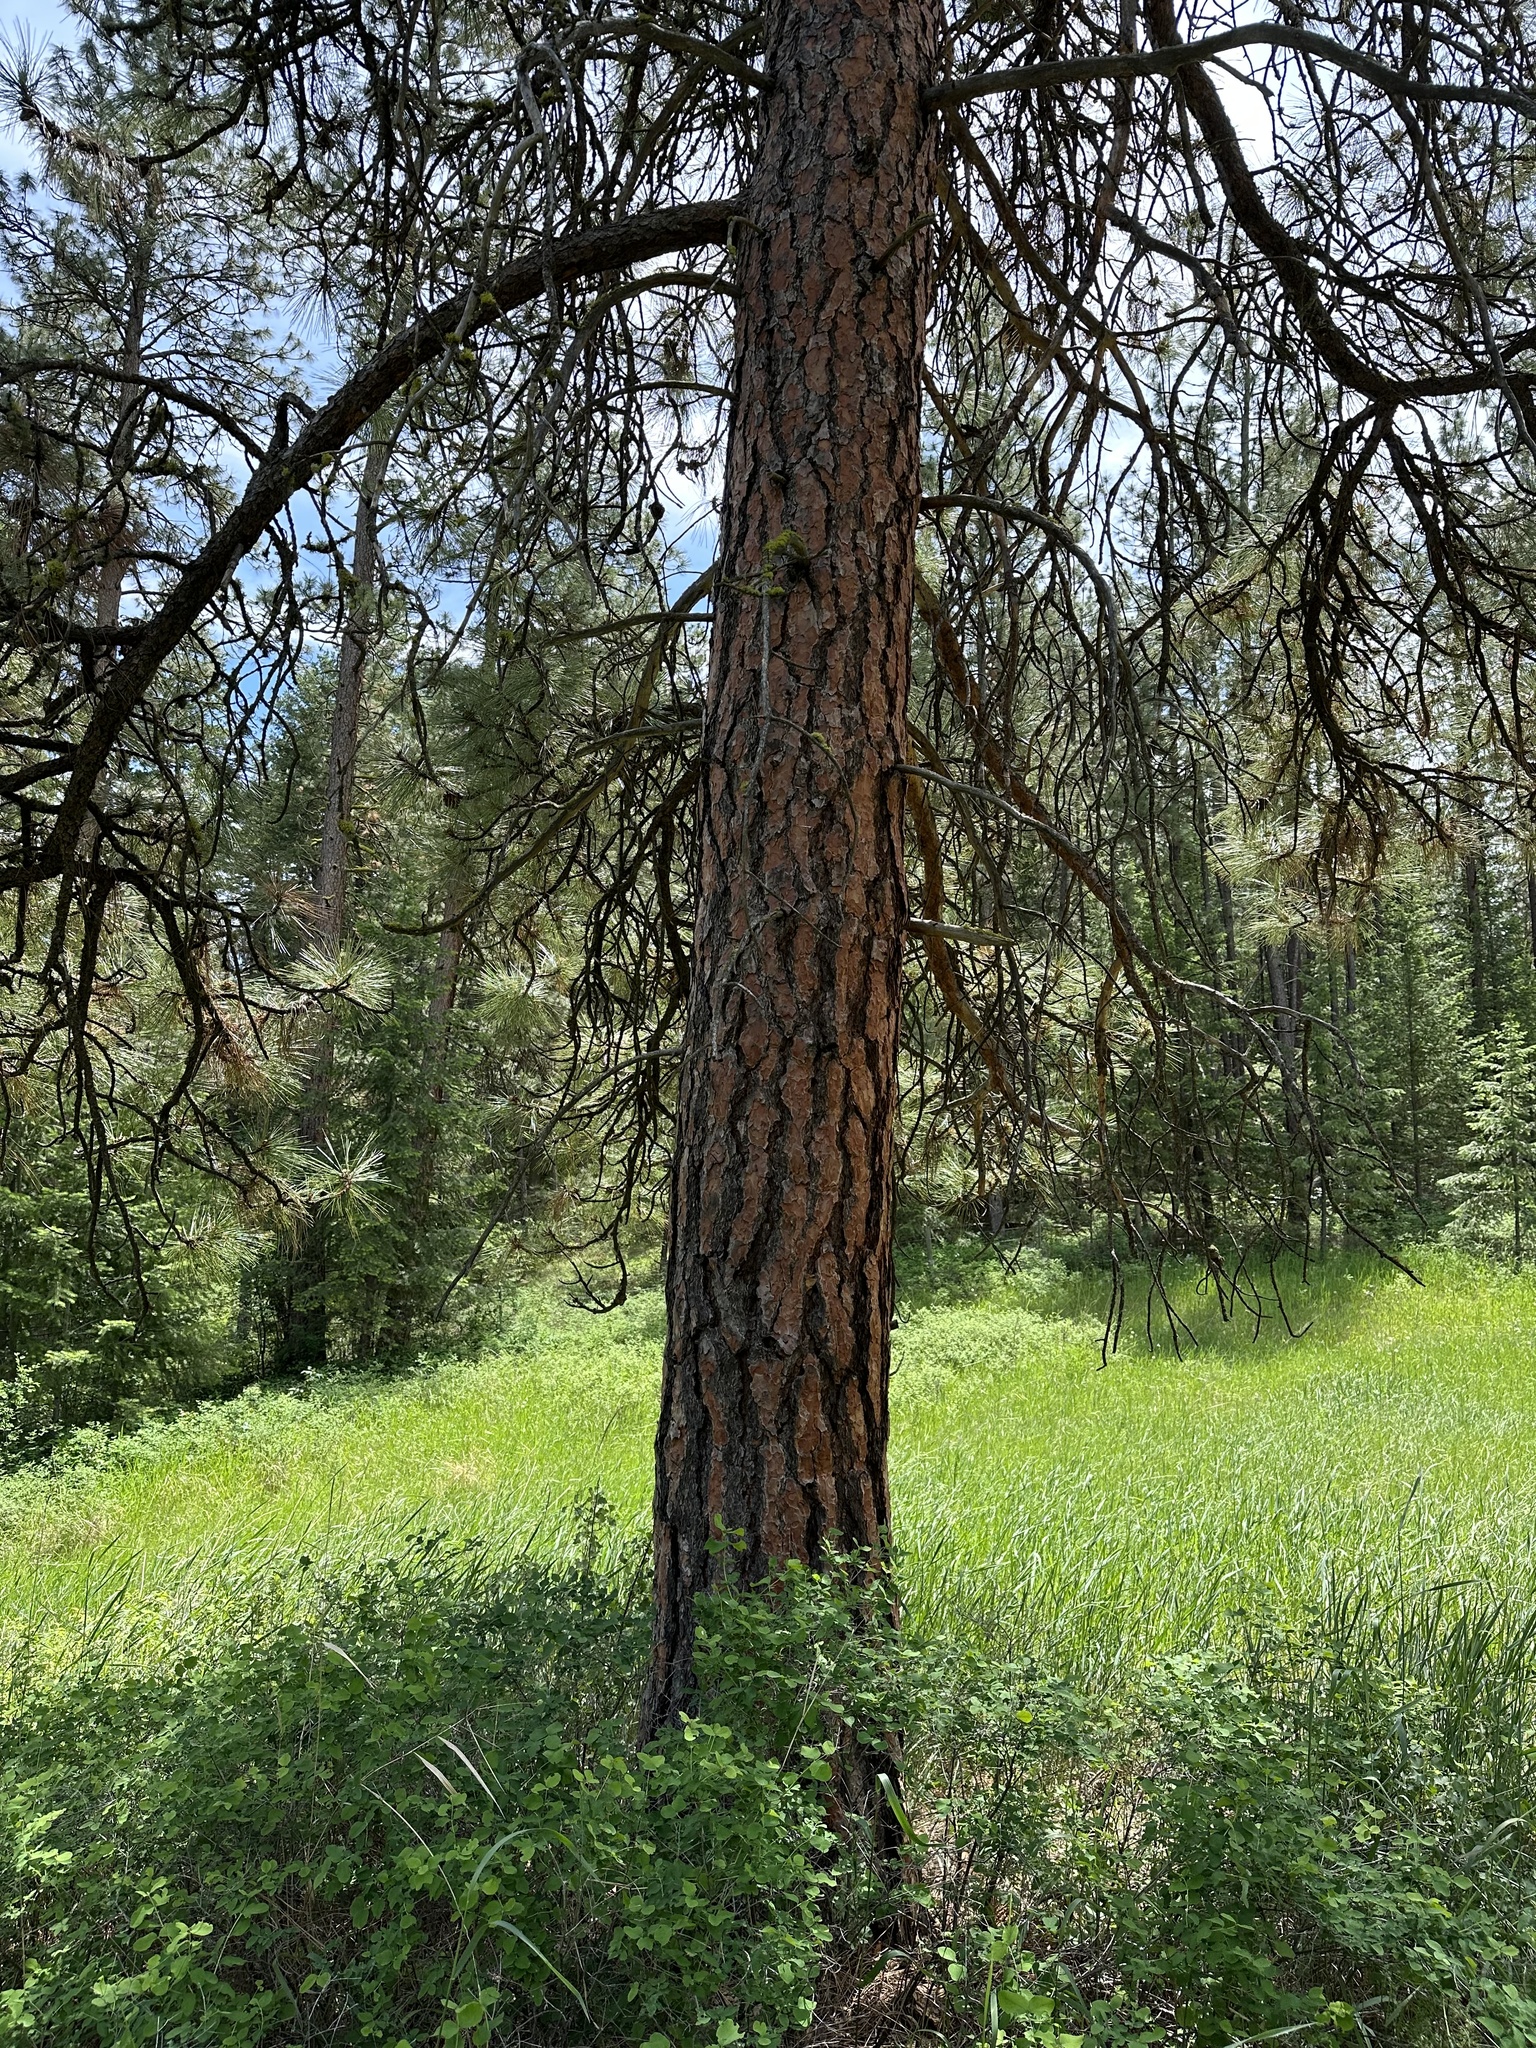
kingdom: Plantae
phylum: Tracheophyta
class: Pinopsida
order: Pinales
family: Pinaceae
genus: Pinus
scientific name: Pinus ponderosa
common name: Western yellow-pine
